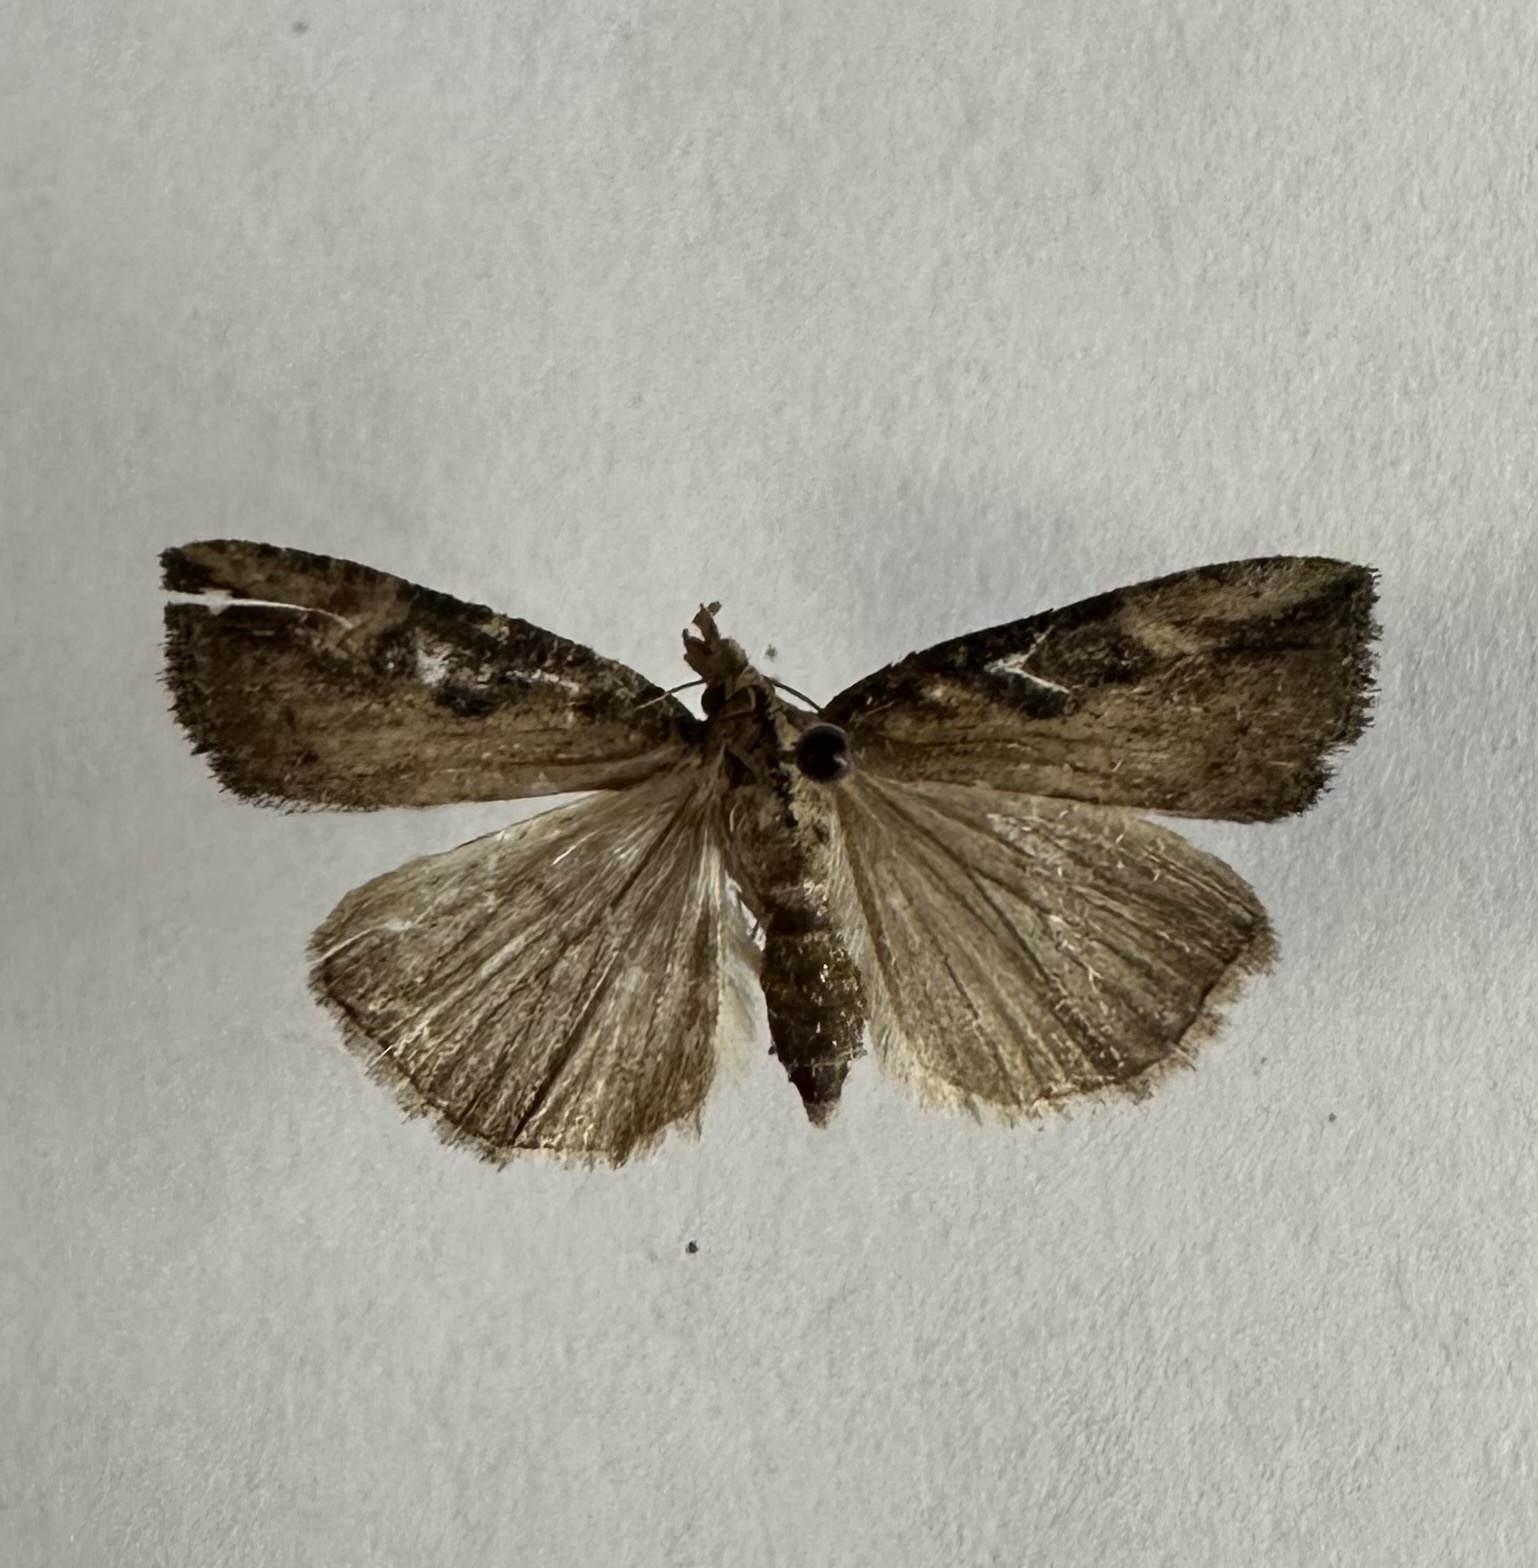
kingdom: Animalia
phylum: Arthropoda
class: Insecta
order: Lepidoptera
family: Erebidae
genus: Hypena
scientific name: Hypena humuli
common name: Hop vine snout
